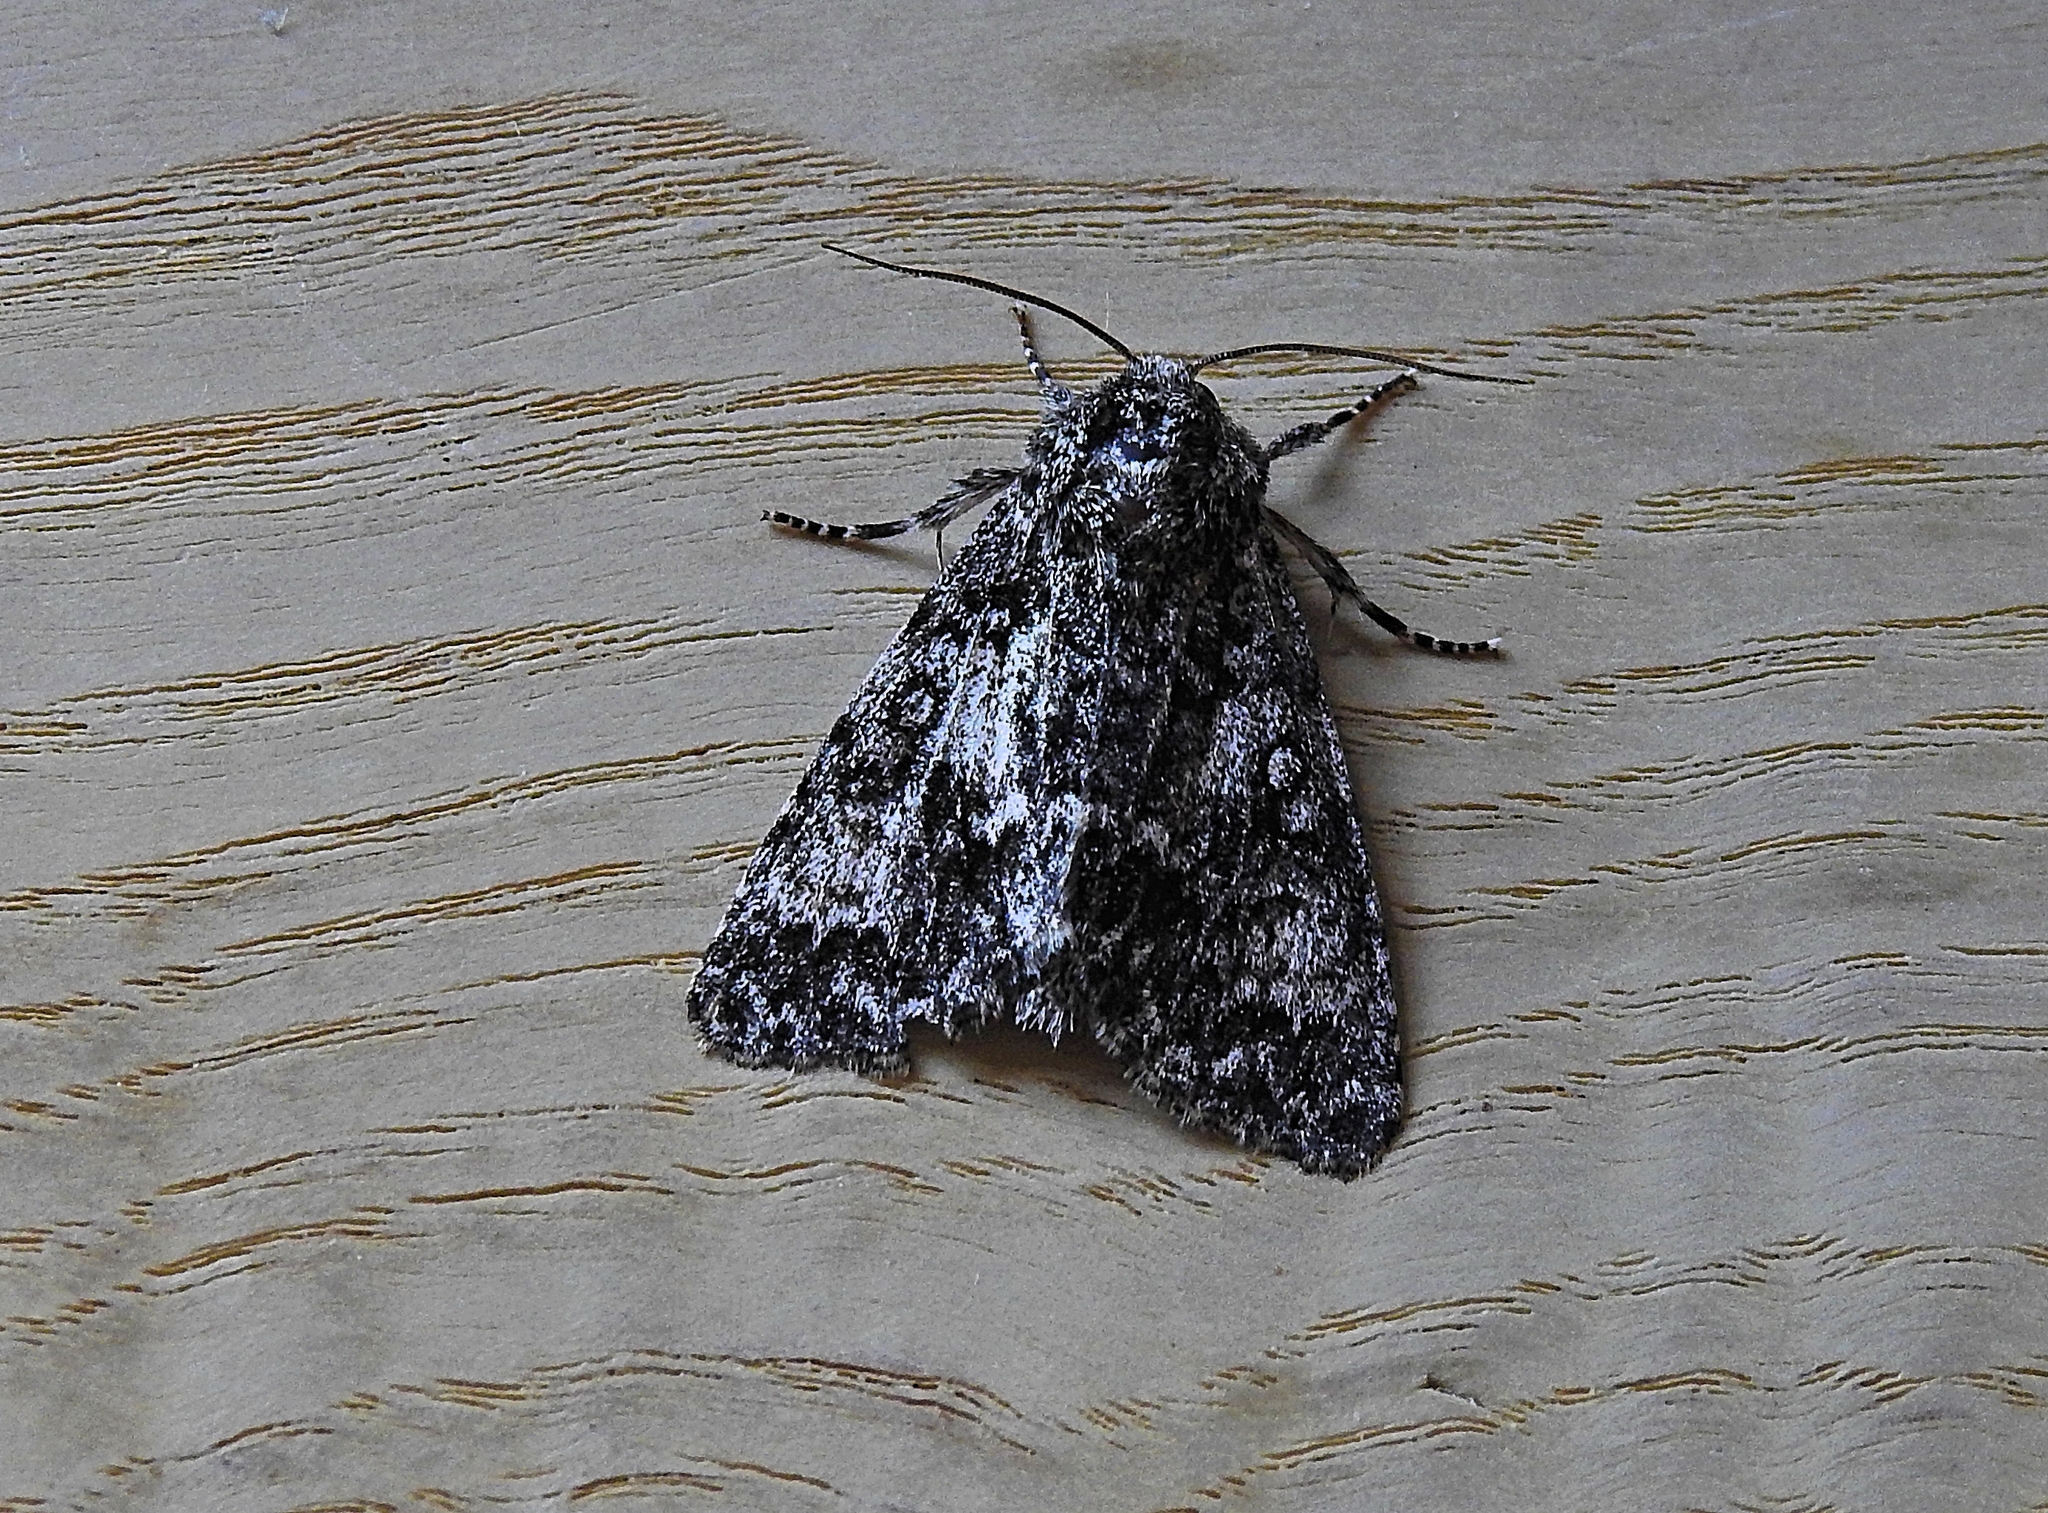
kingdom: Animalia
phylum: Arthropoda
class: Insecta
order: Lepidoptera
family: Noctuidae
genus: Acronicta
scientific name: Acronicta megacephala
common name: Poplar grey
